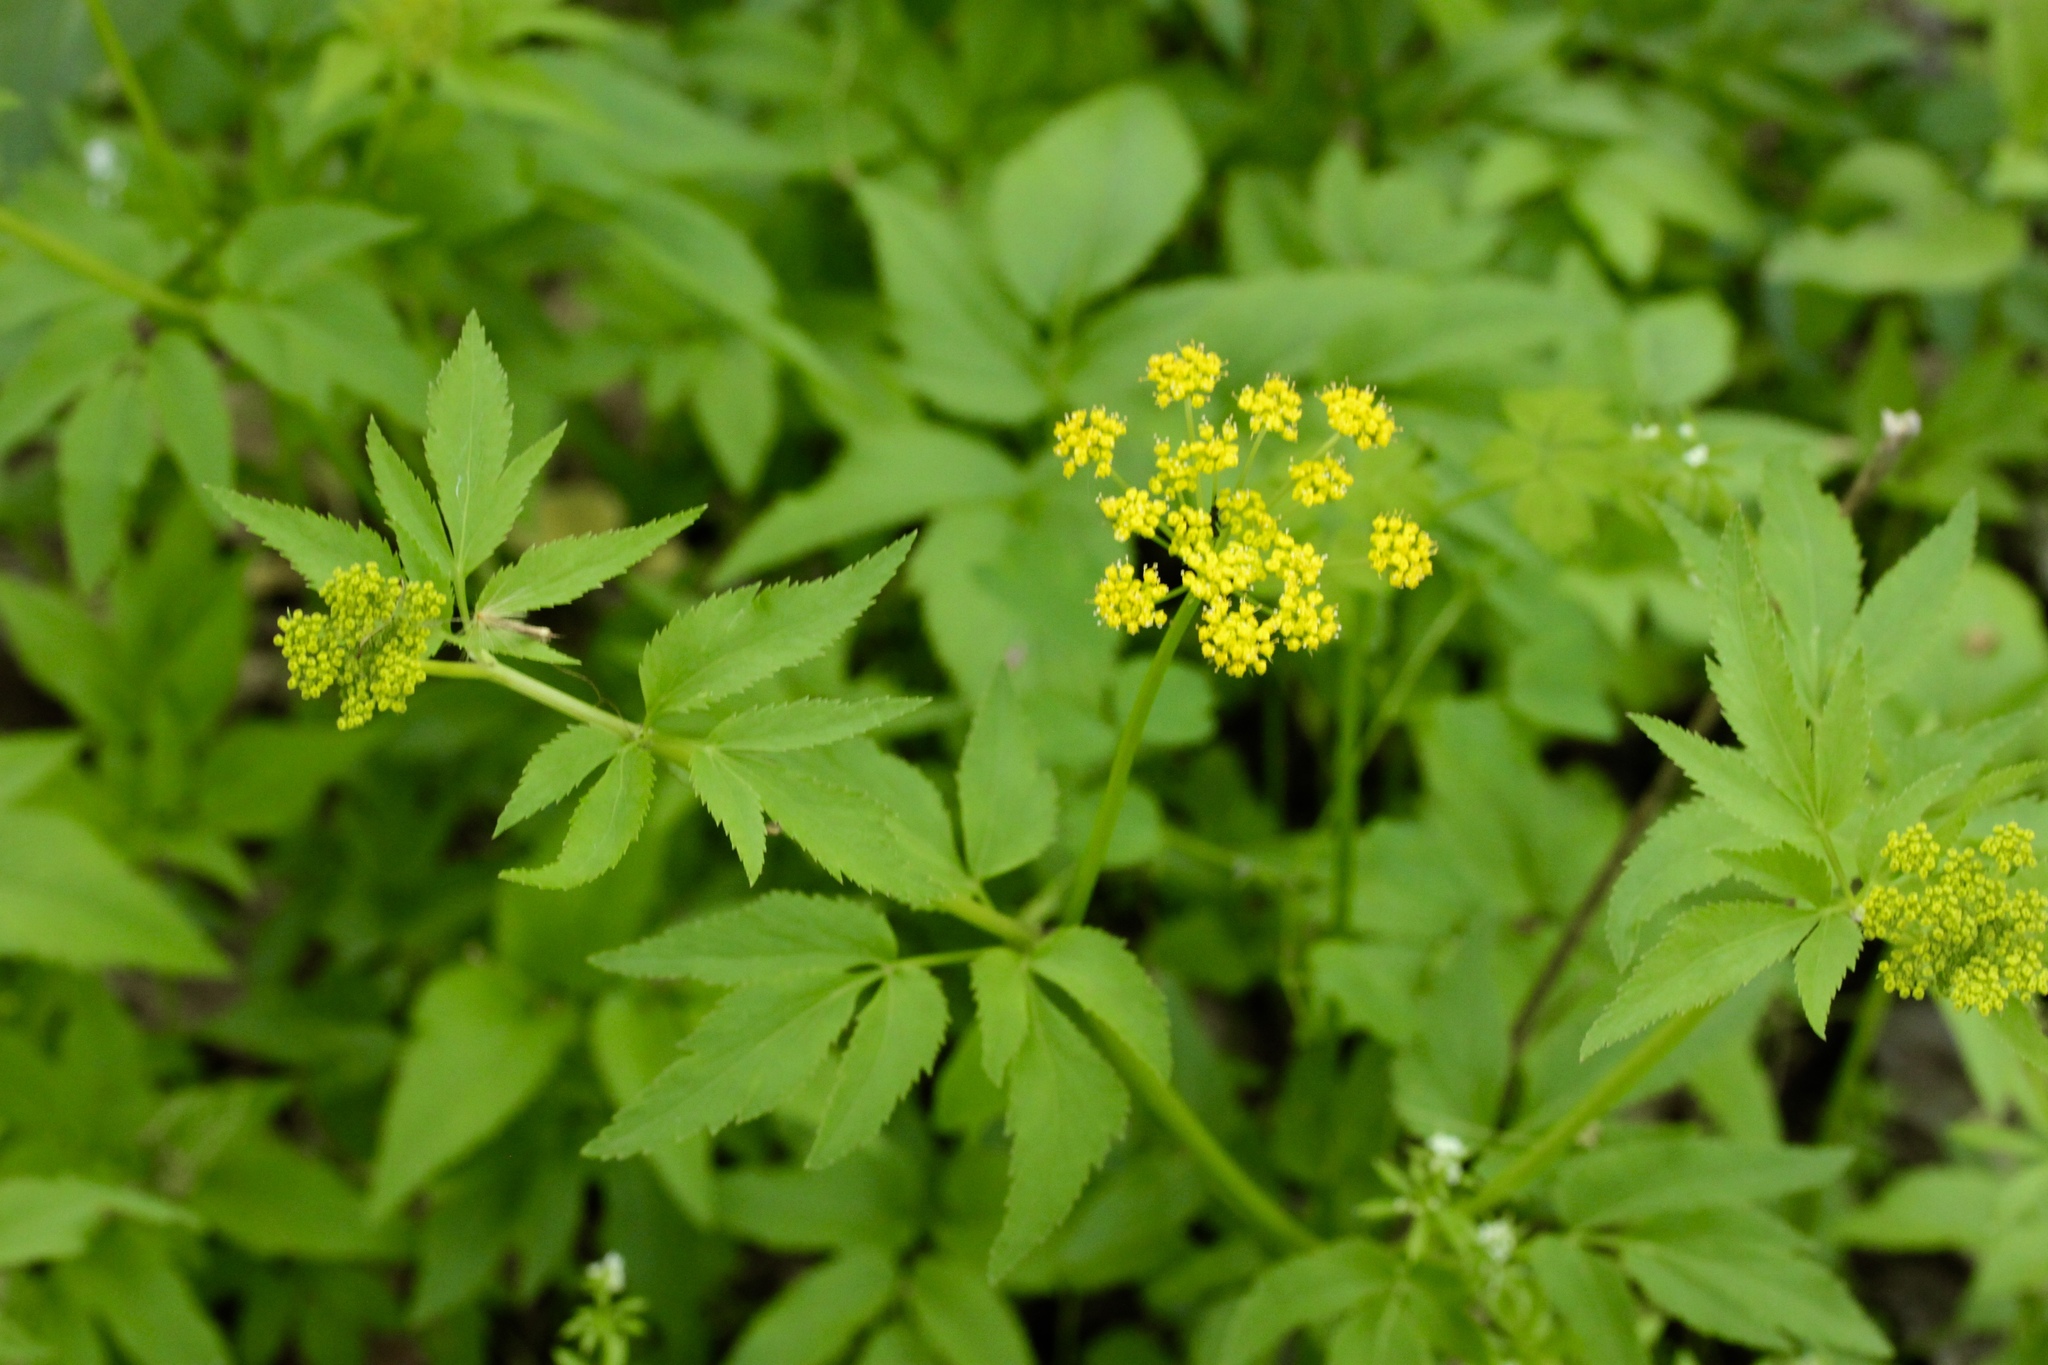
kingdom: Plantae
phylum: Tracheophyta
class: Magnoliopsida
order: Apiales
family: Apiaceae
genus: Zizia
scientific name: Zizia aurea
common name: Golden alexanders
